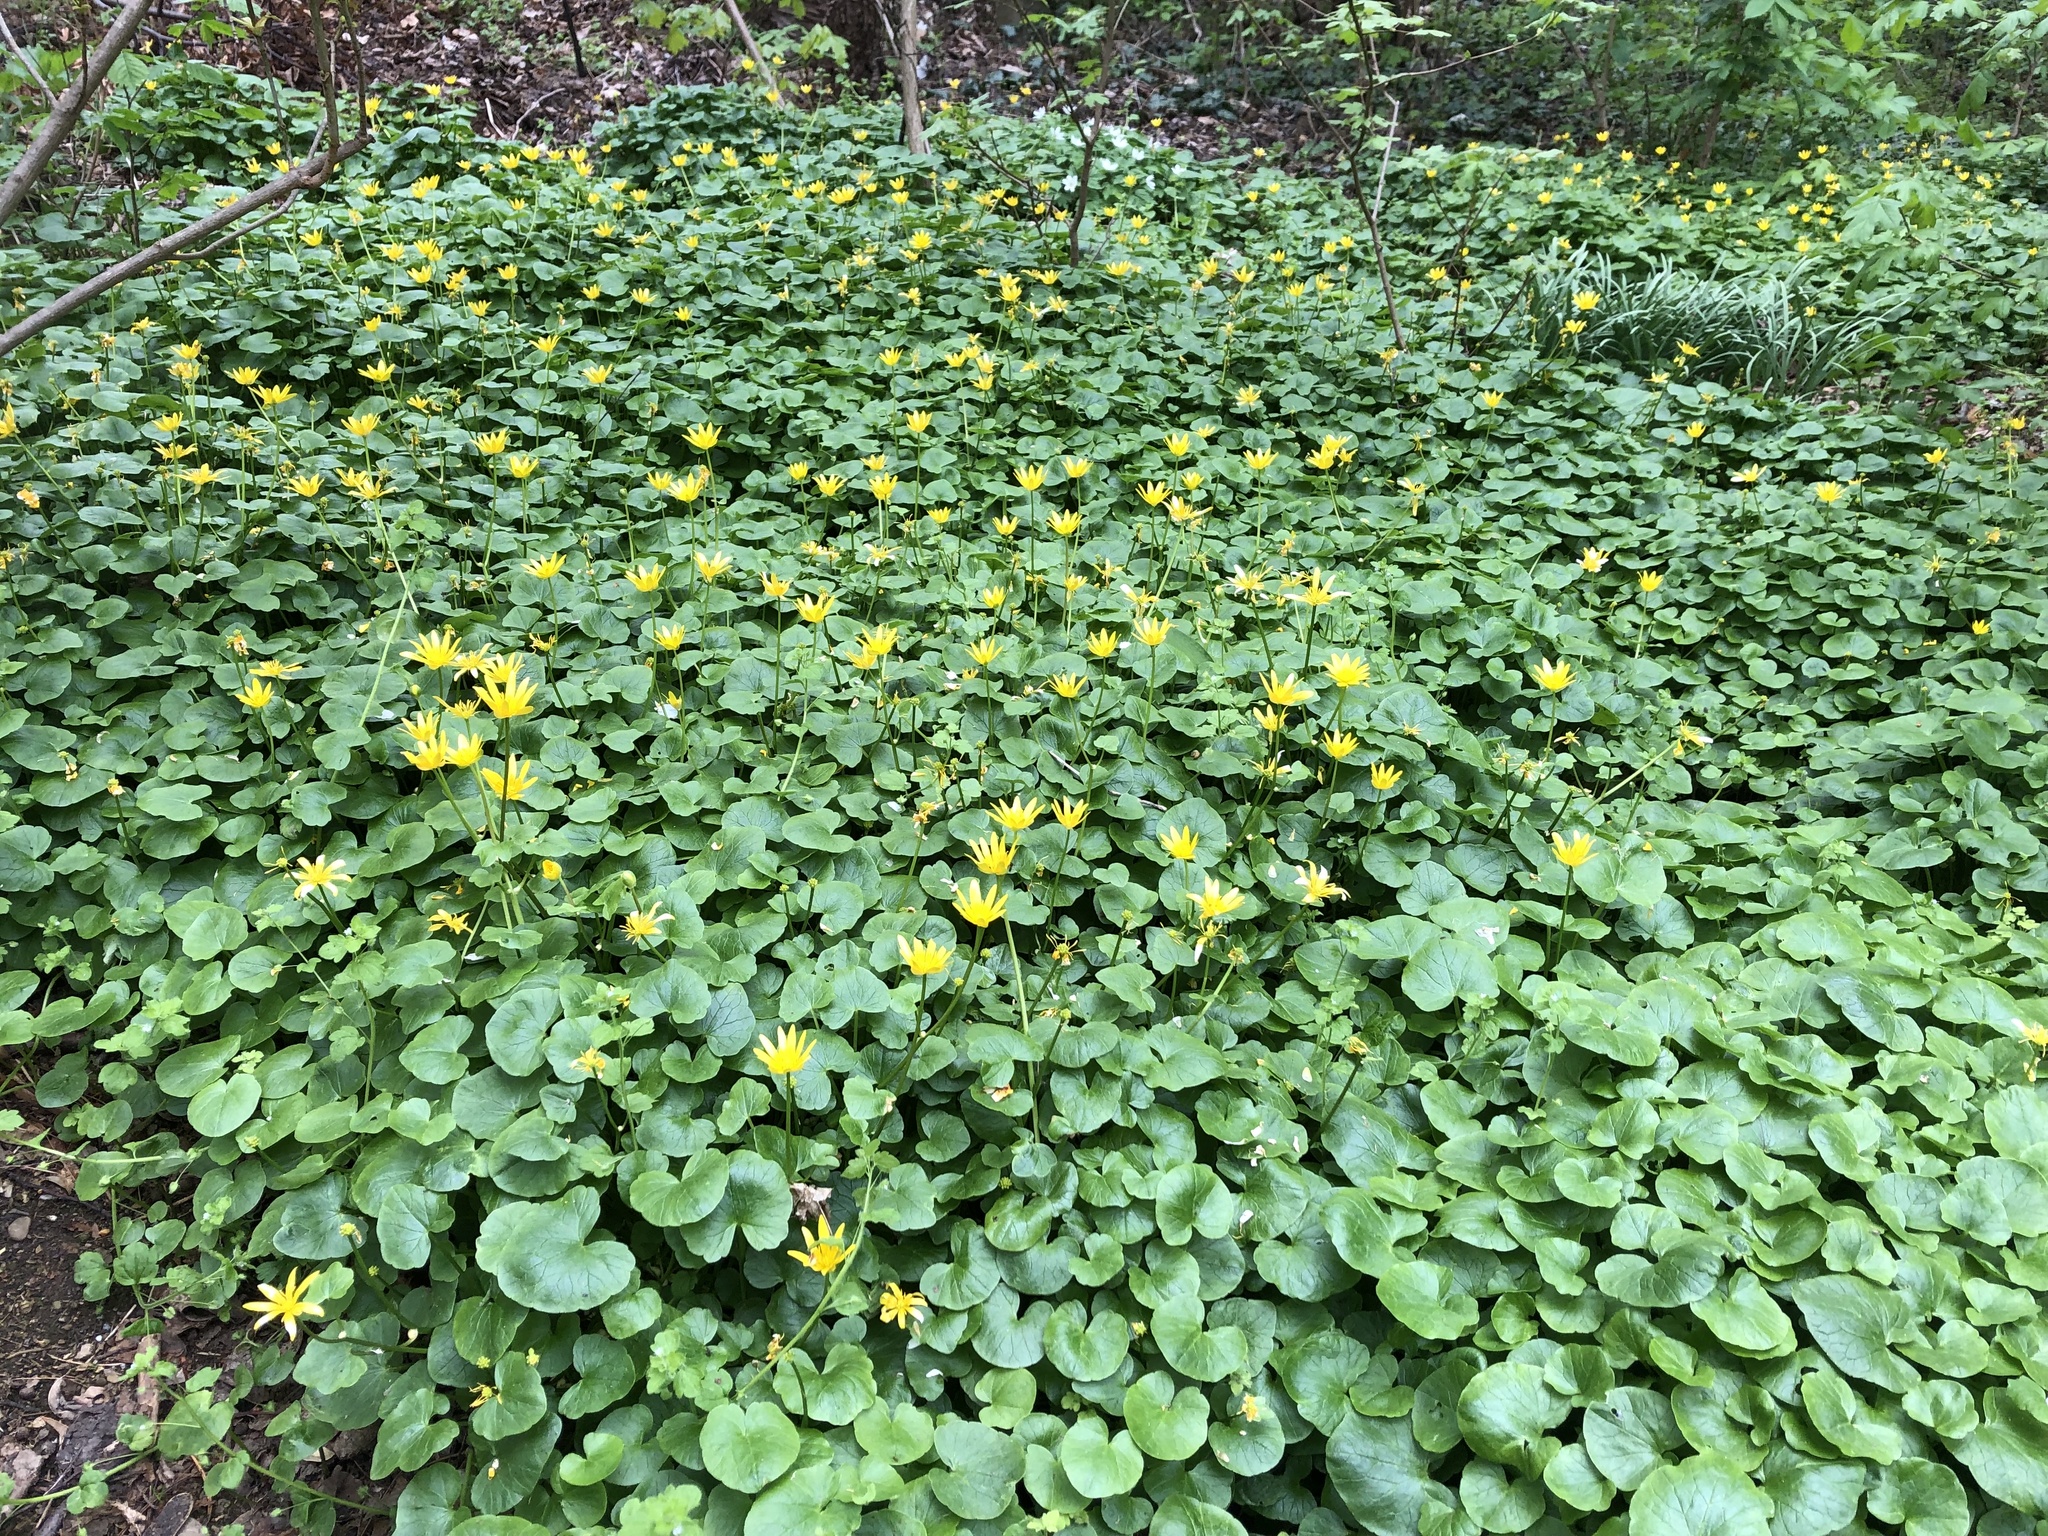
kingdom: Plantae
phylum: Tracheophyta
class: Magnoliopsida
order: Ranunculales
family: Ranunculaceae
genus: Ficaria
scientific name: Ficaria verna
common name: Lesser celandine
